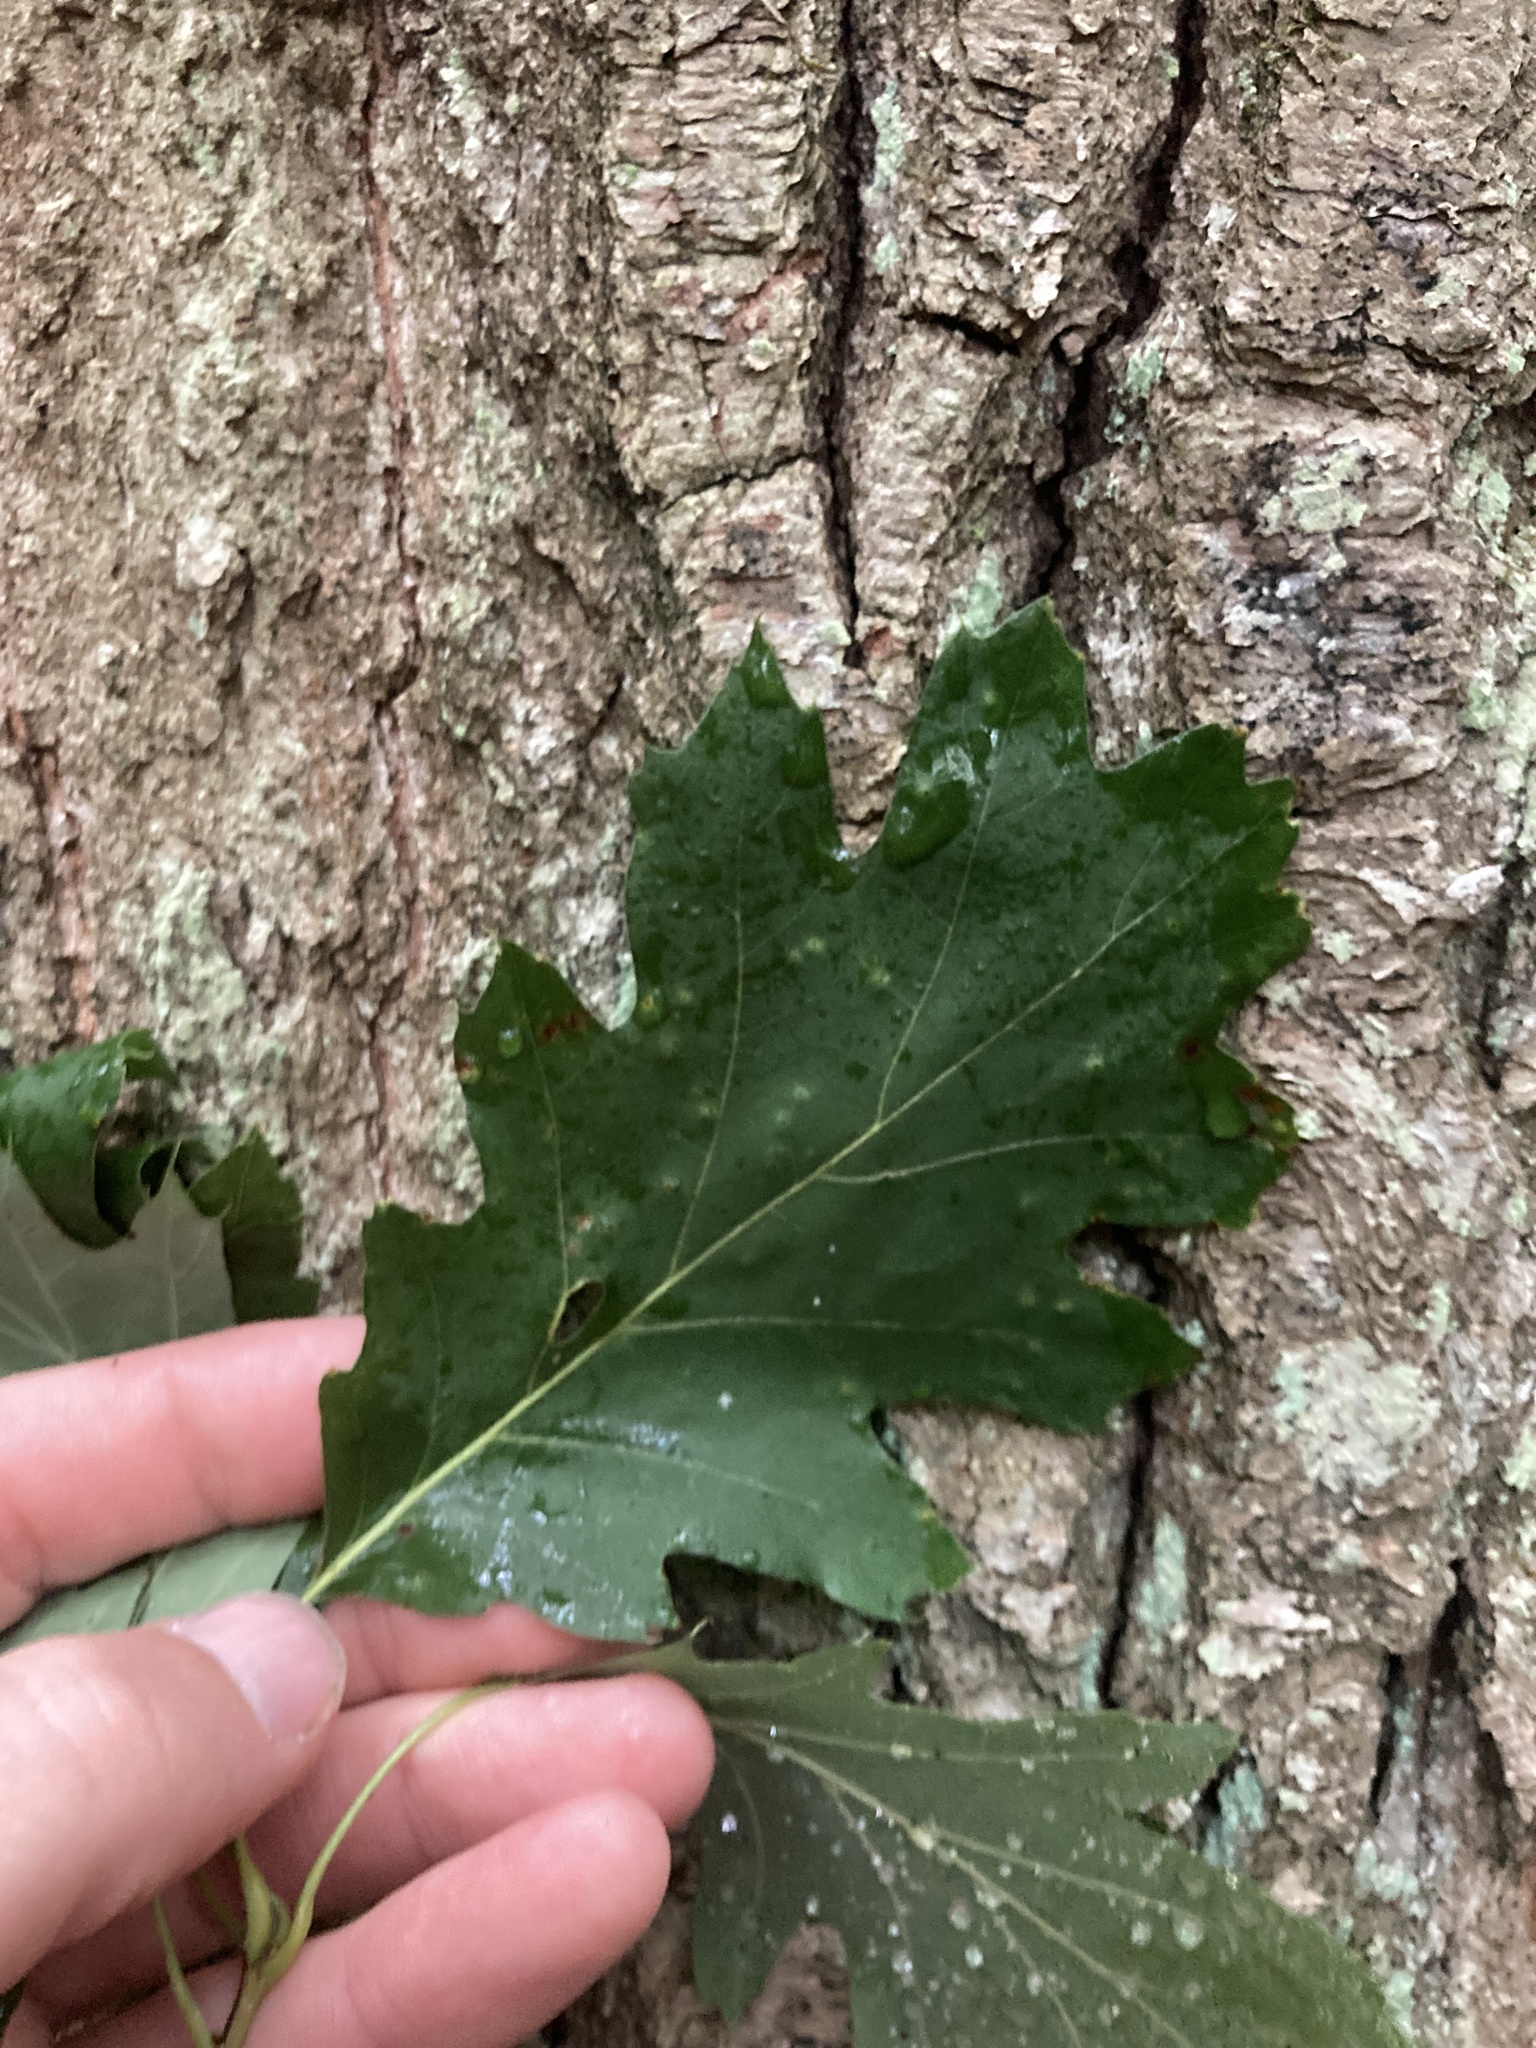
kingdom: Plantae
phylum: Tracheophyta
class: Magnoliopsida
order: Fagales
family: Fagaceae
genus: Quercus
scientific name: Quercus rubra
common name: Red oak
